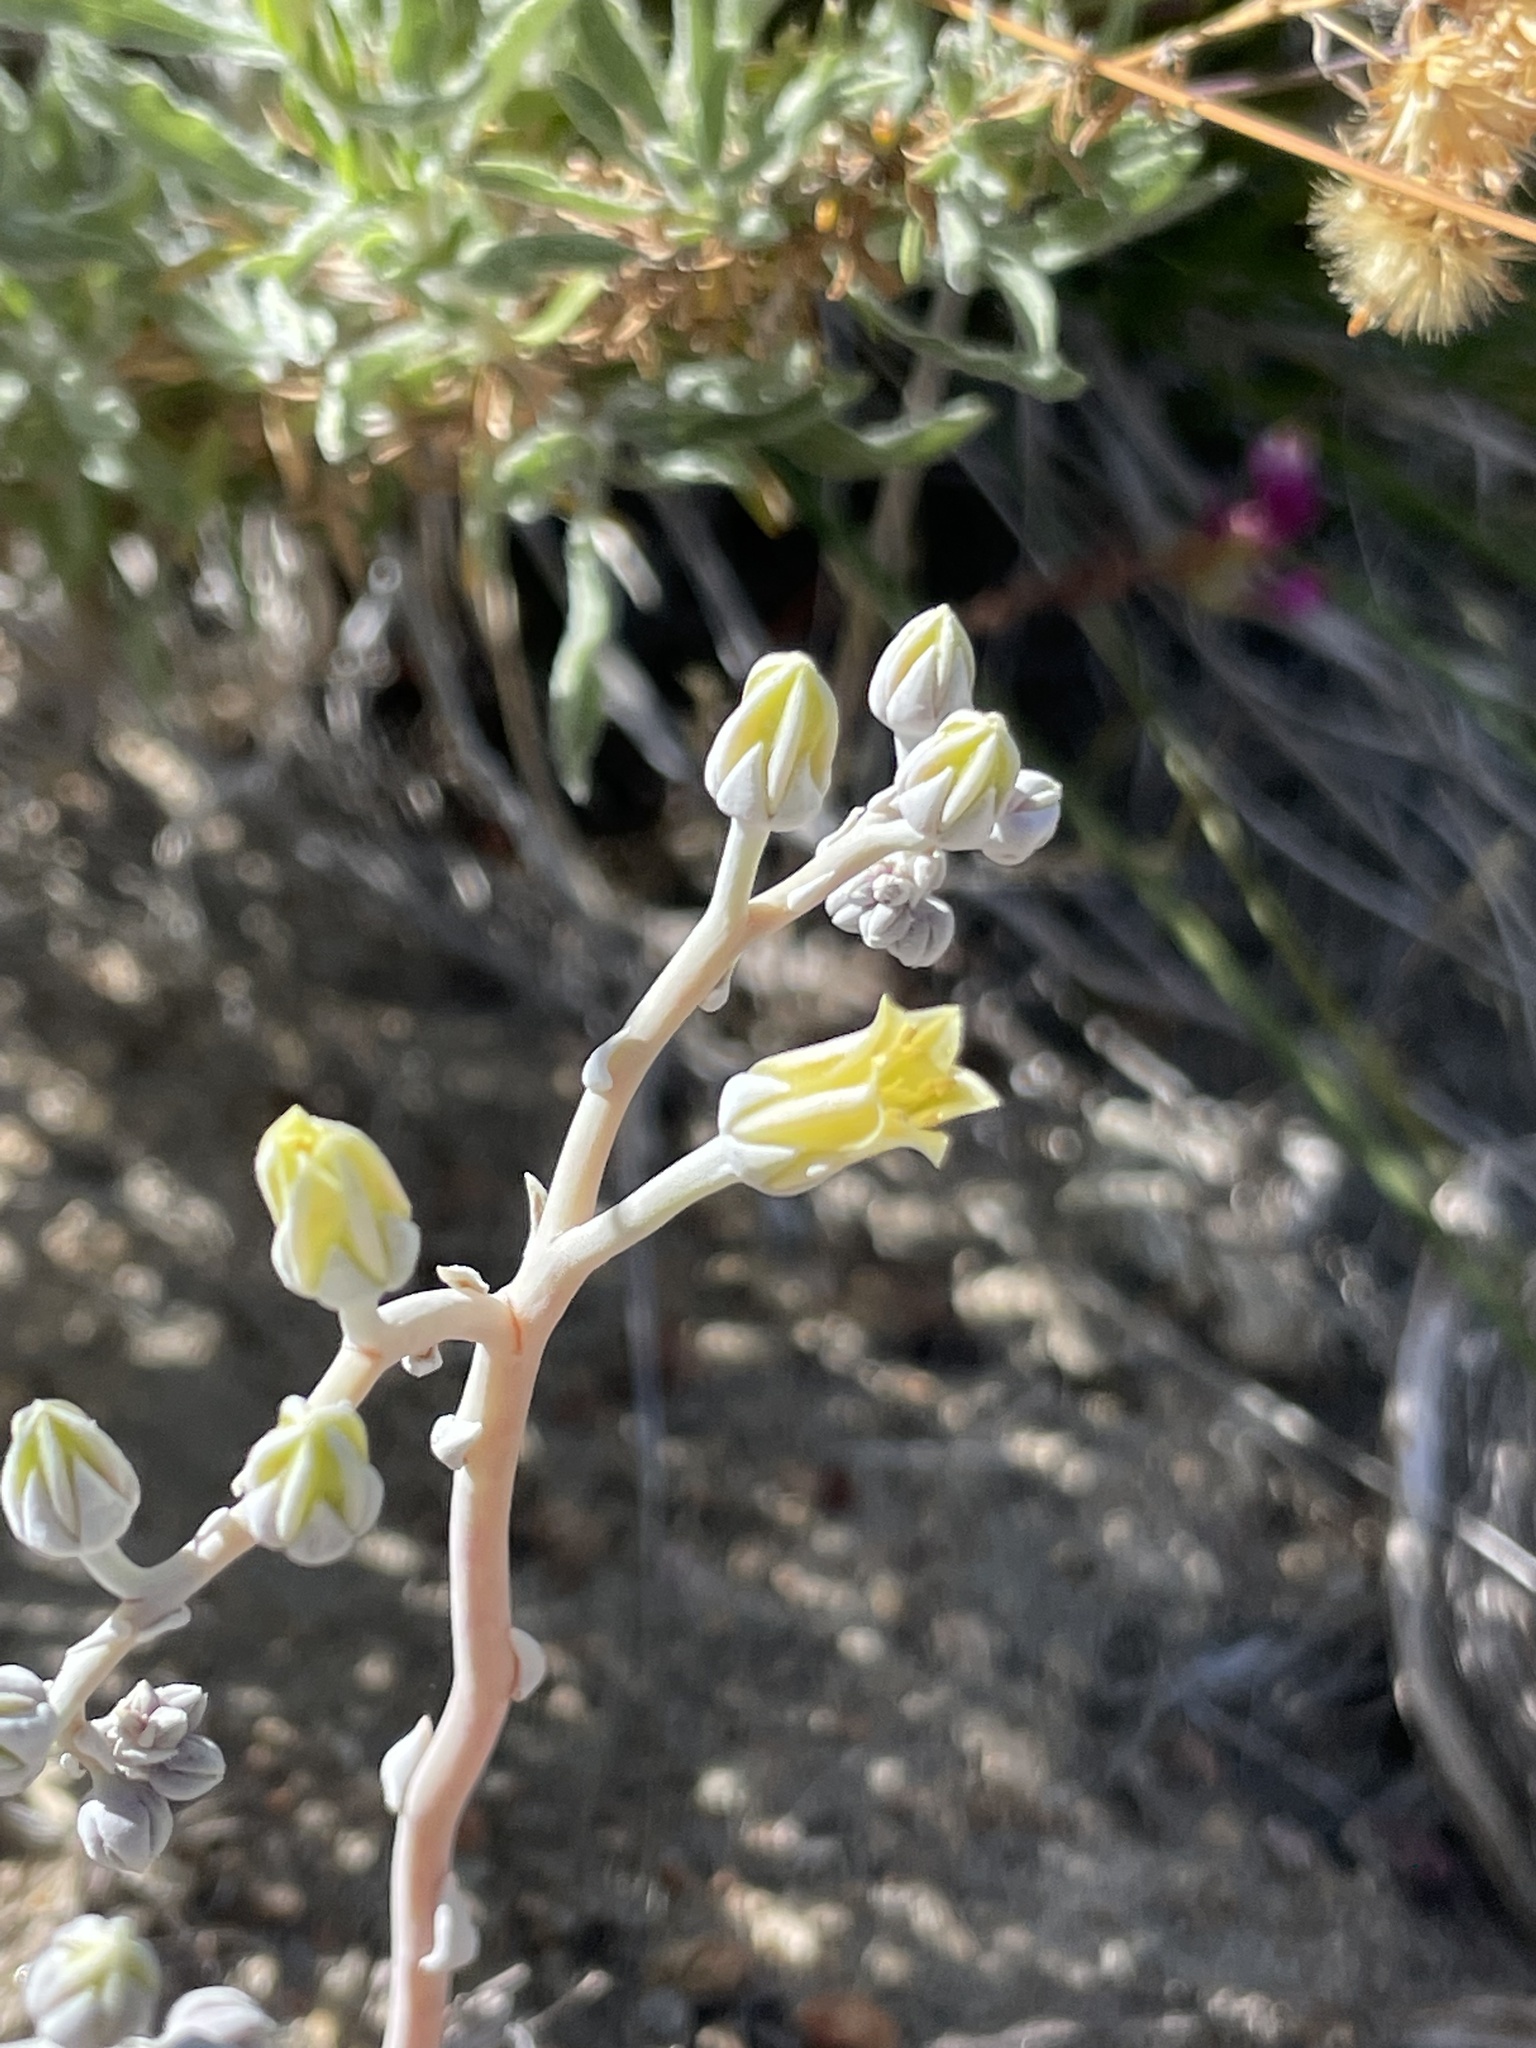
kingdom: Plantae
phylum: Tracheophyta
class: Magnoliopsida
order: Saxifragales
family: Crassulaceae
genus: Dudleya
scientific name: Dudleya abramsii
